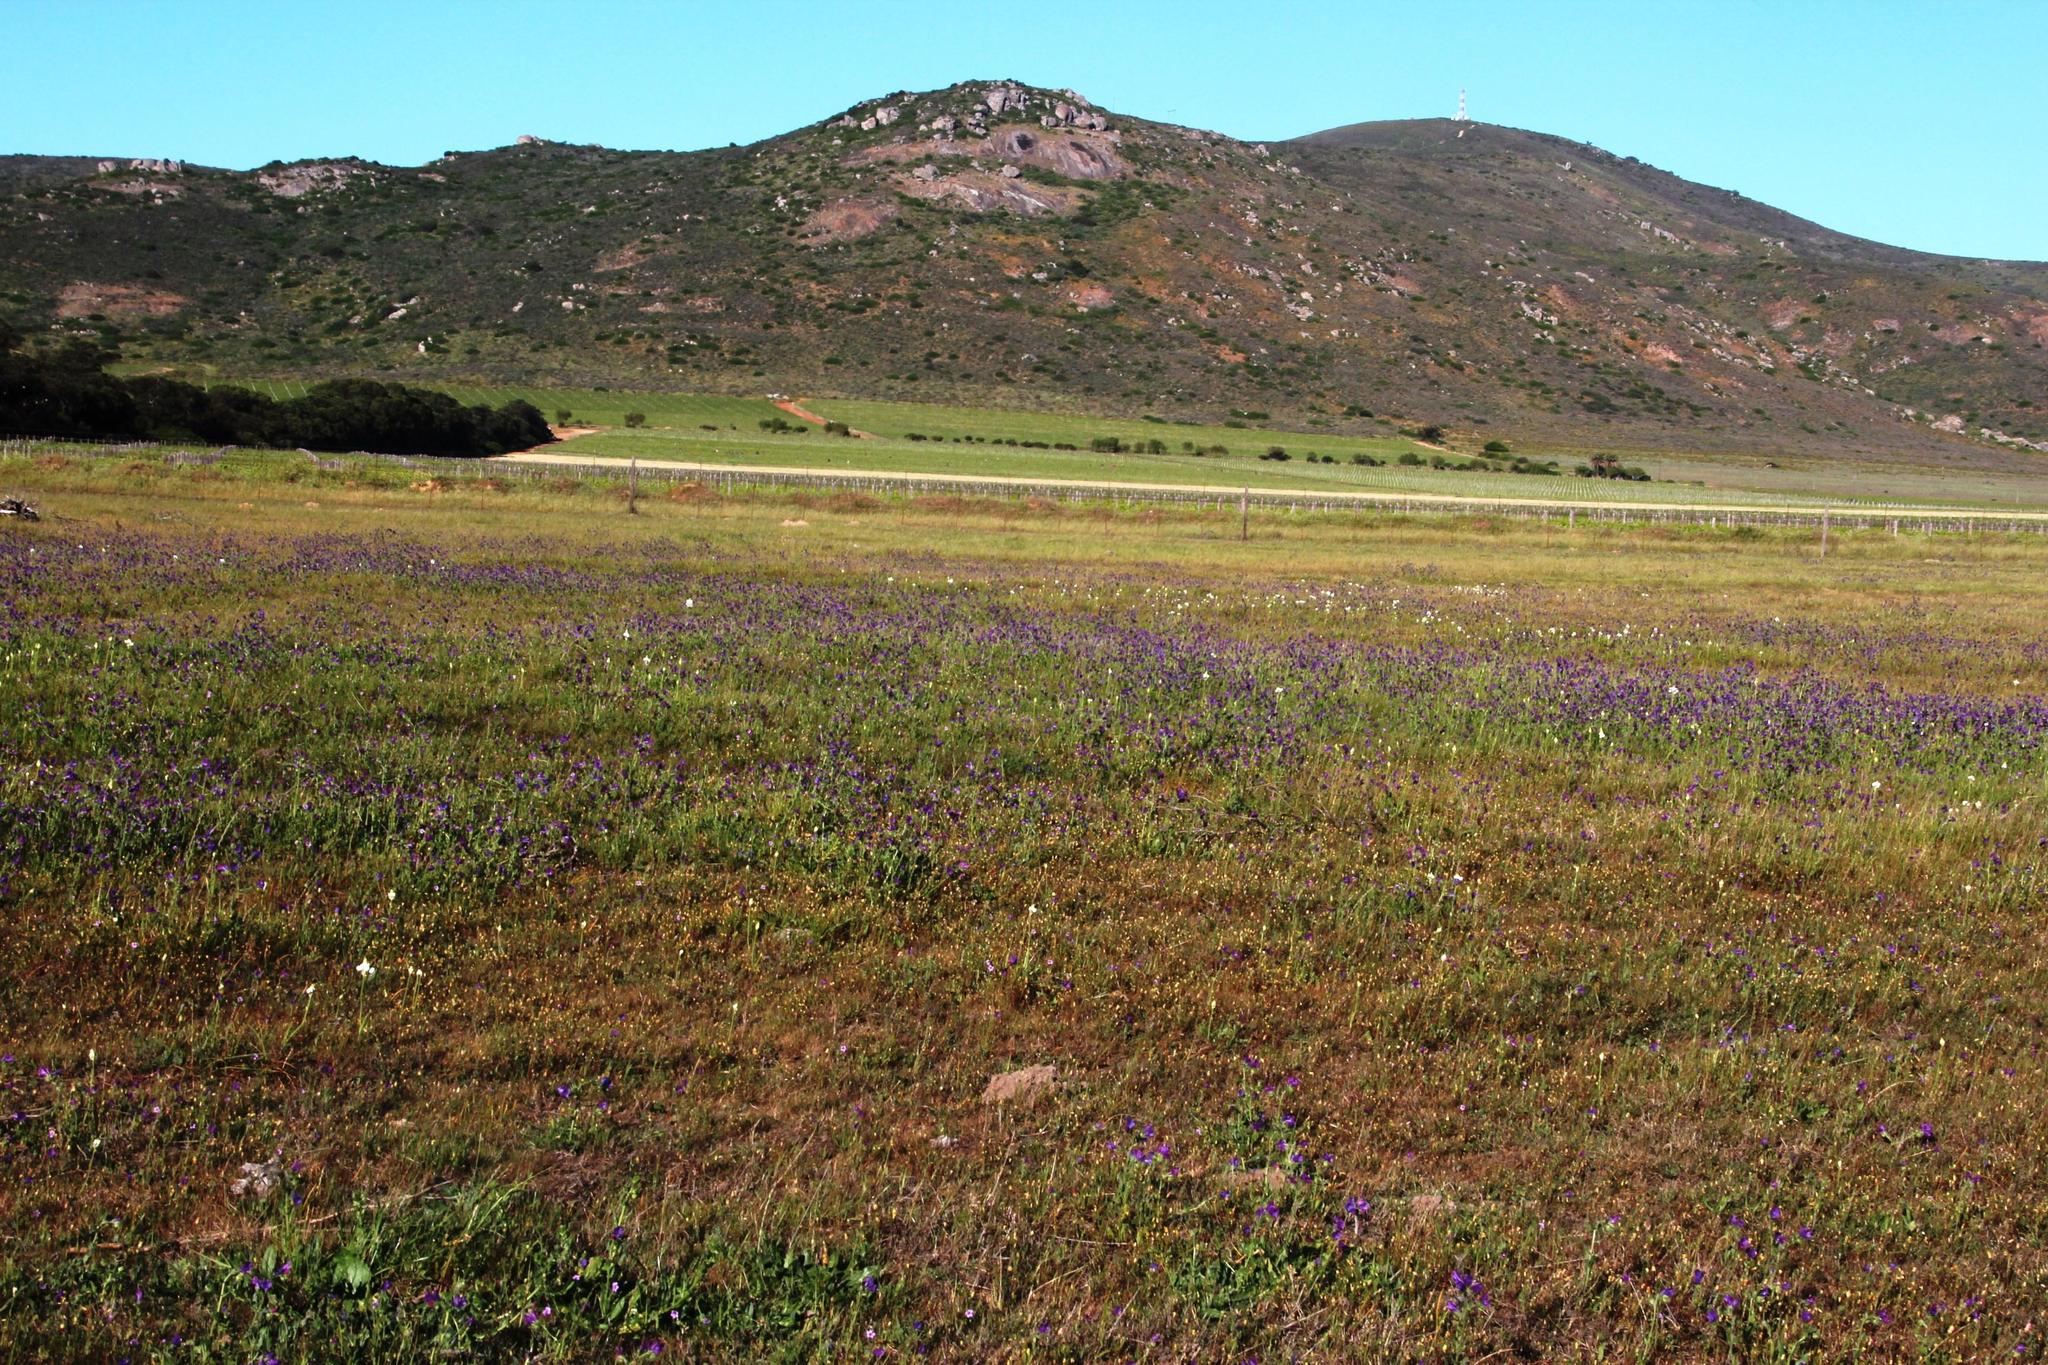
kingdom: Plantae
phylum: Tracheophyta
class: Magnoliopsida
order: Boraginales
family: Boraginaceae
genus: Echium
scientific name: Echium plantagineum
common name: Purple viper's-bugloss
